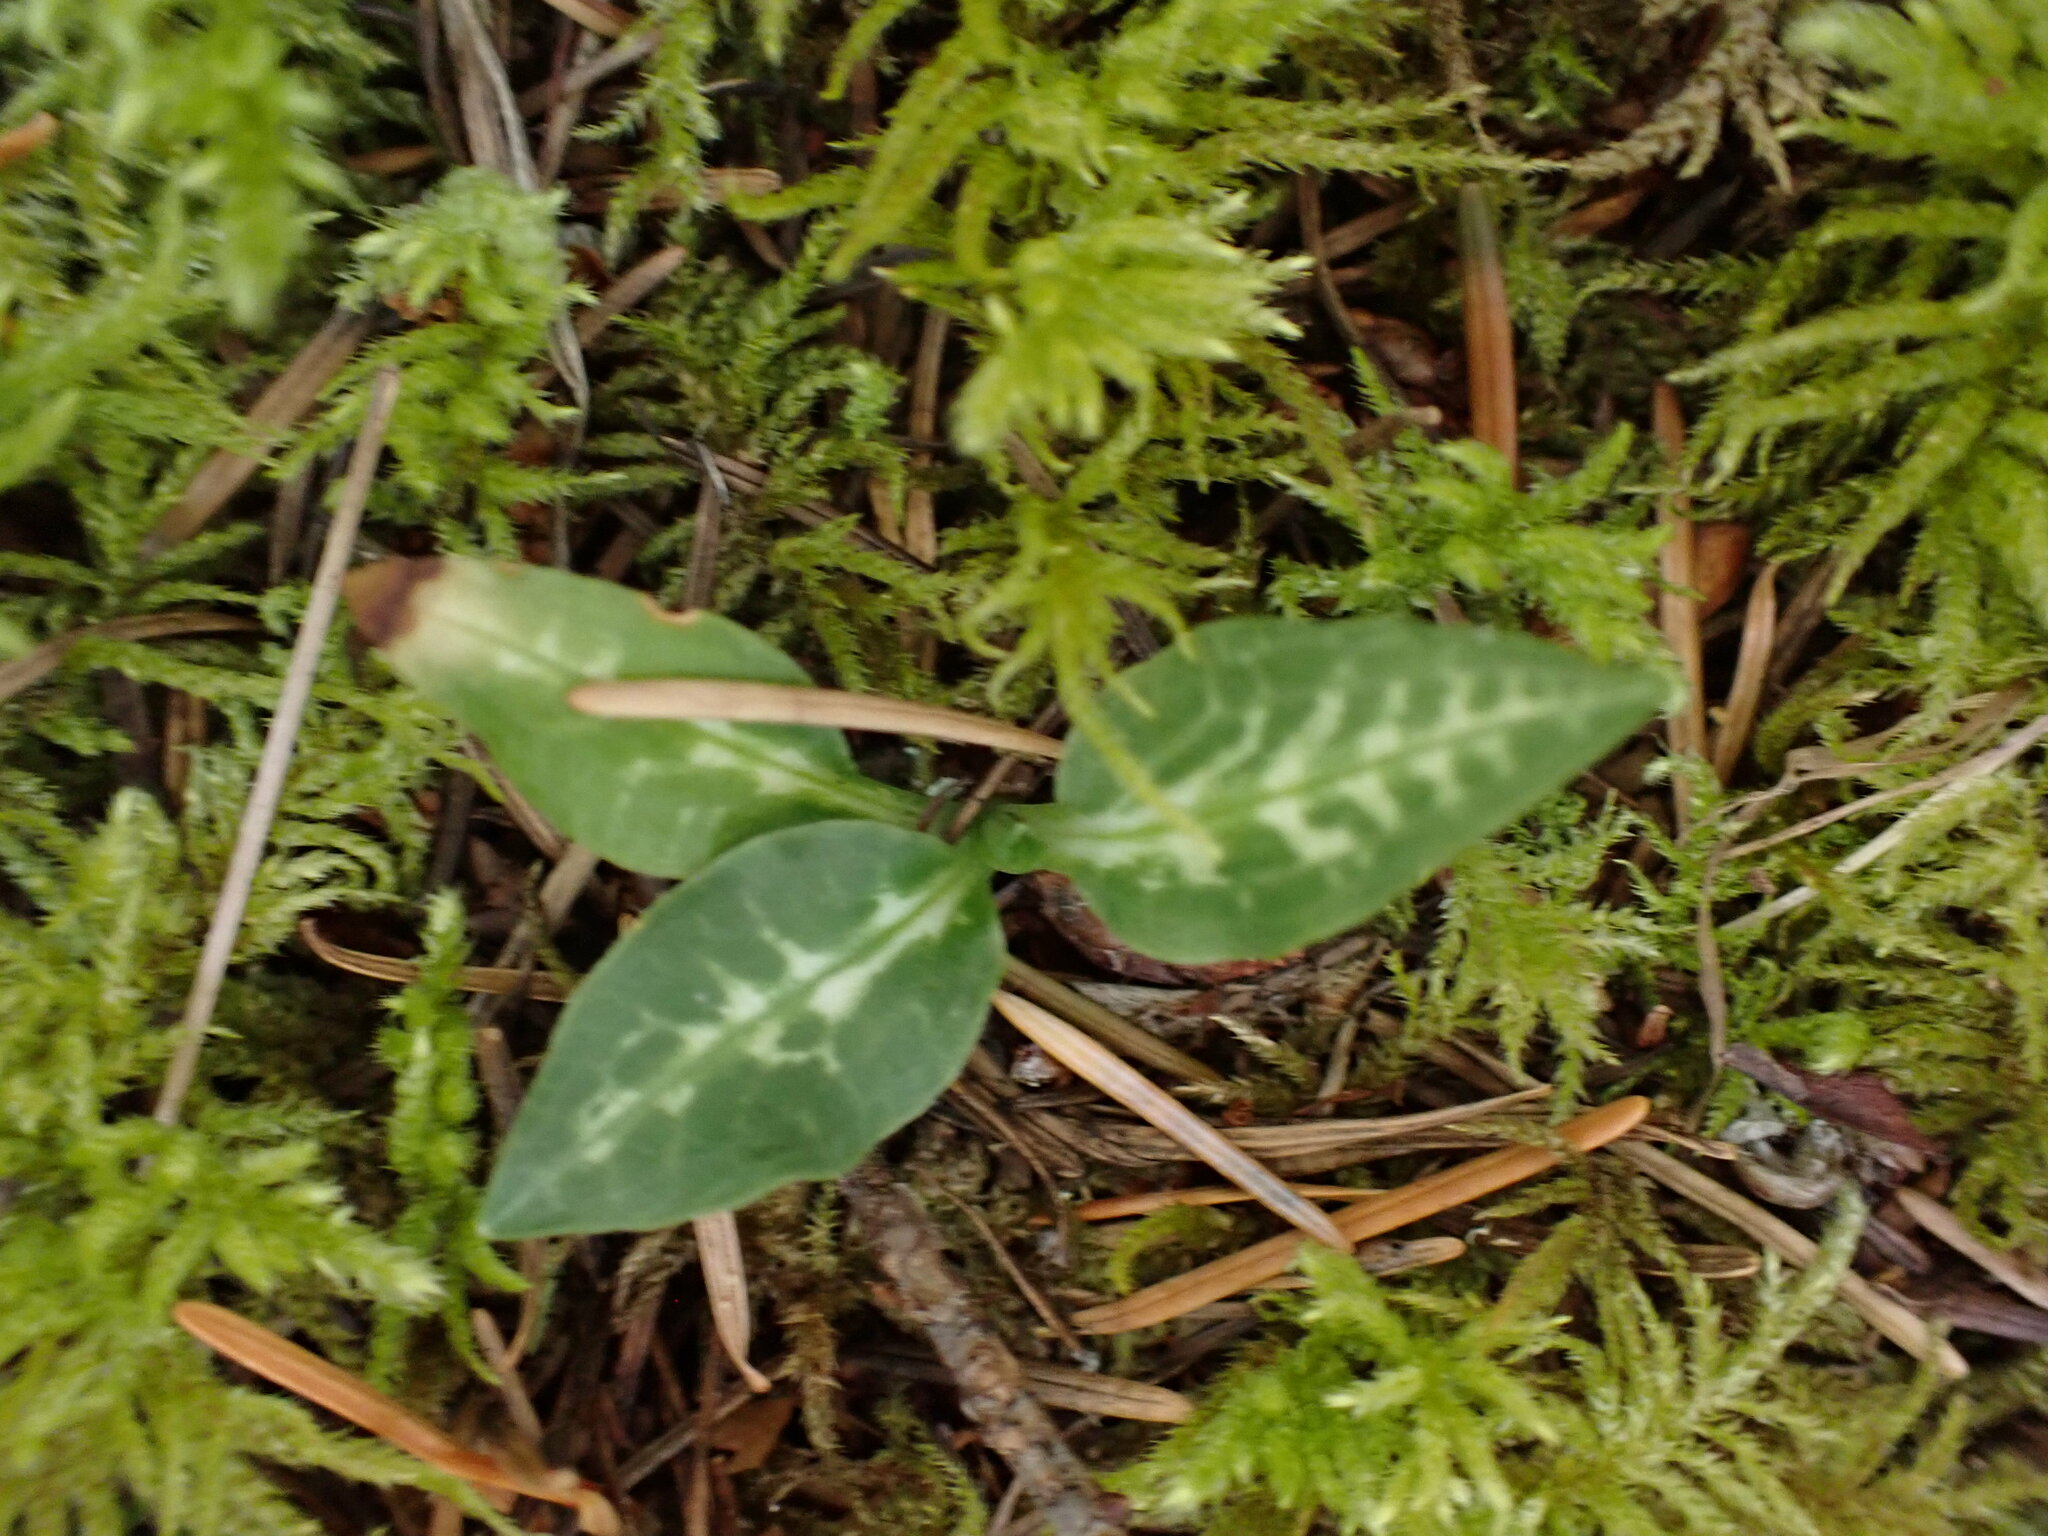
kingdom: Plantae
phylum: Tracheophyta
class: Liliopsida
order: Asparagales
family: Orchidaceae
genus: Goodyera
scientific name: Goodyera oblongifolia
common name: Giant rattlesnake-plantain
